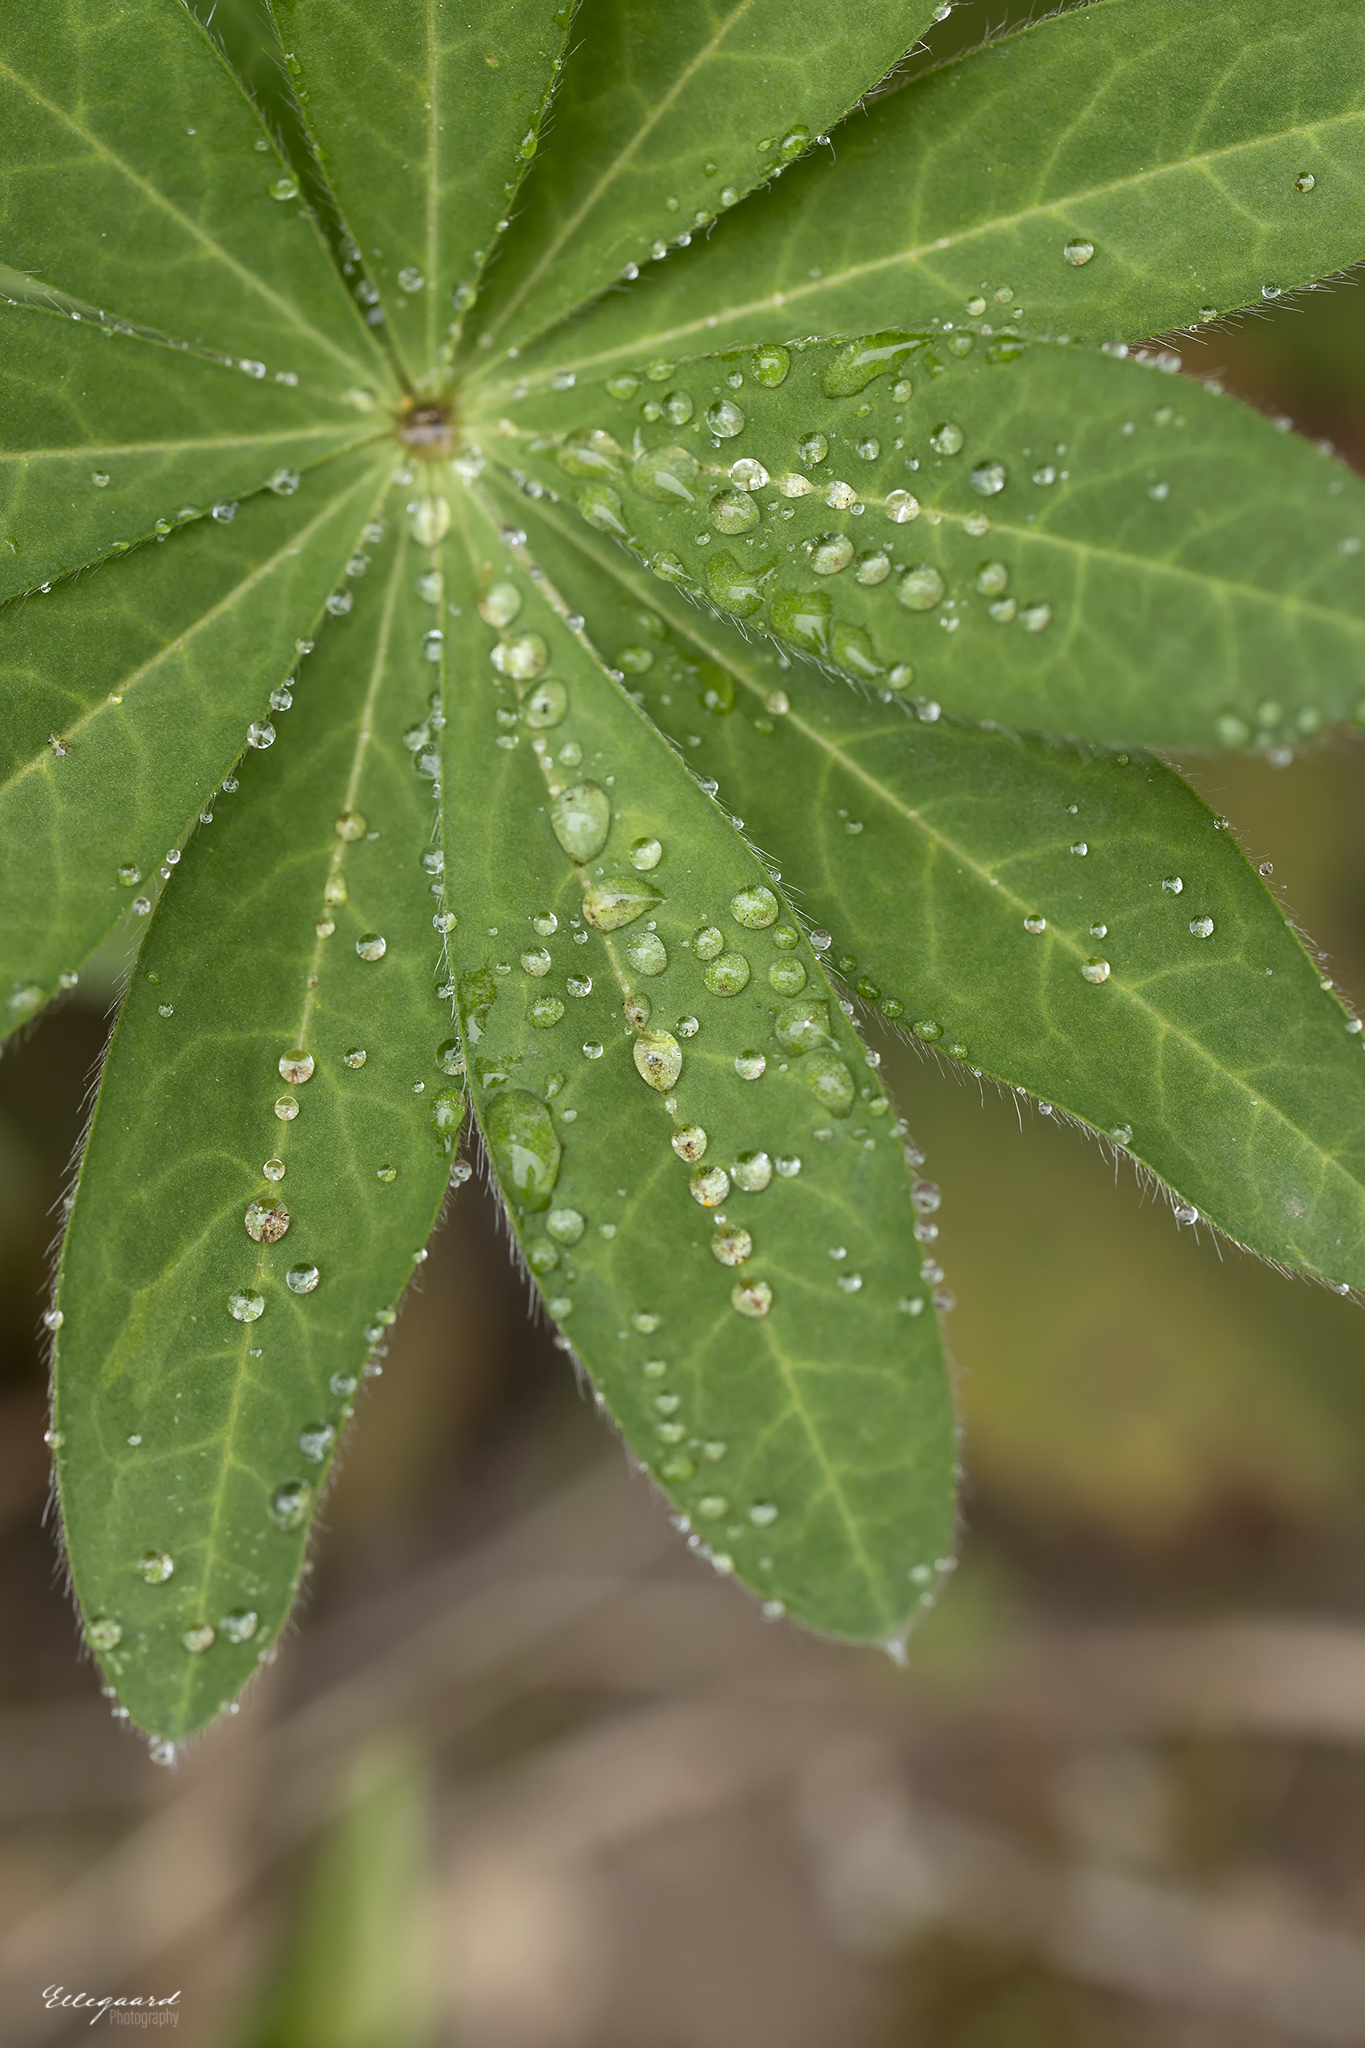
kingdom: Plantae
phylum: Tracheophyta
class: Magnoliopsida
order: Fabales
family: Fabaceae
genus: Lupinus
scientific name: Lupinus polyphyllus
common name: Garden lupin
